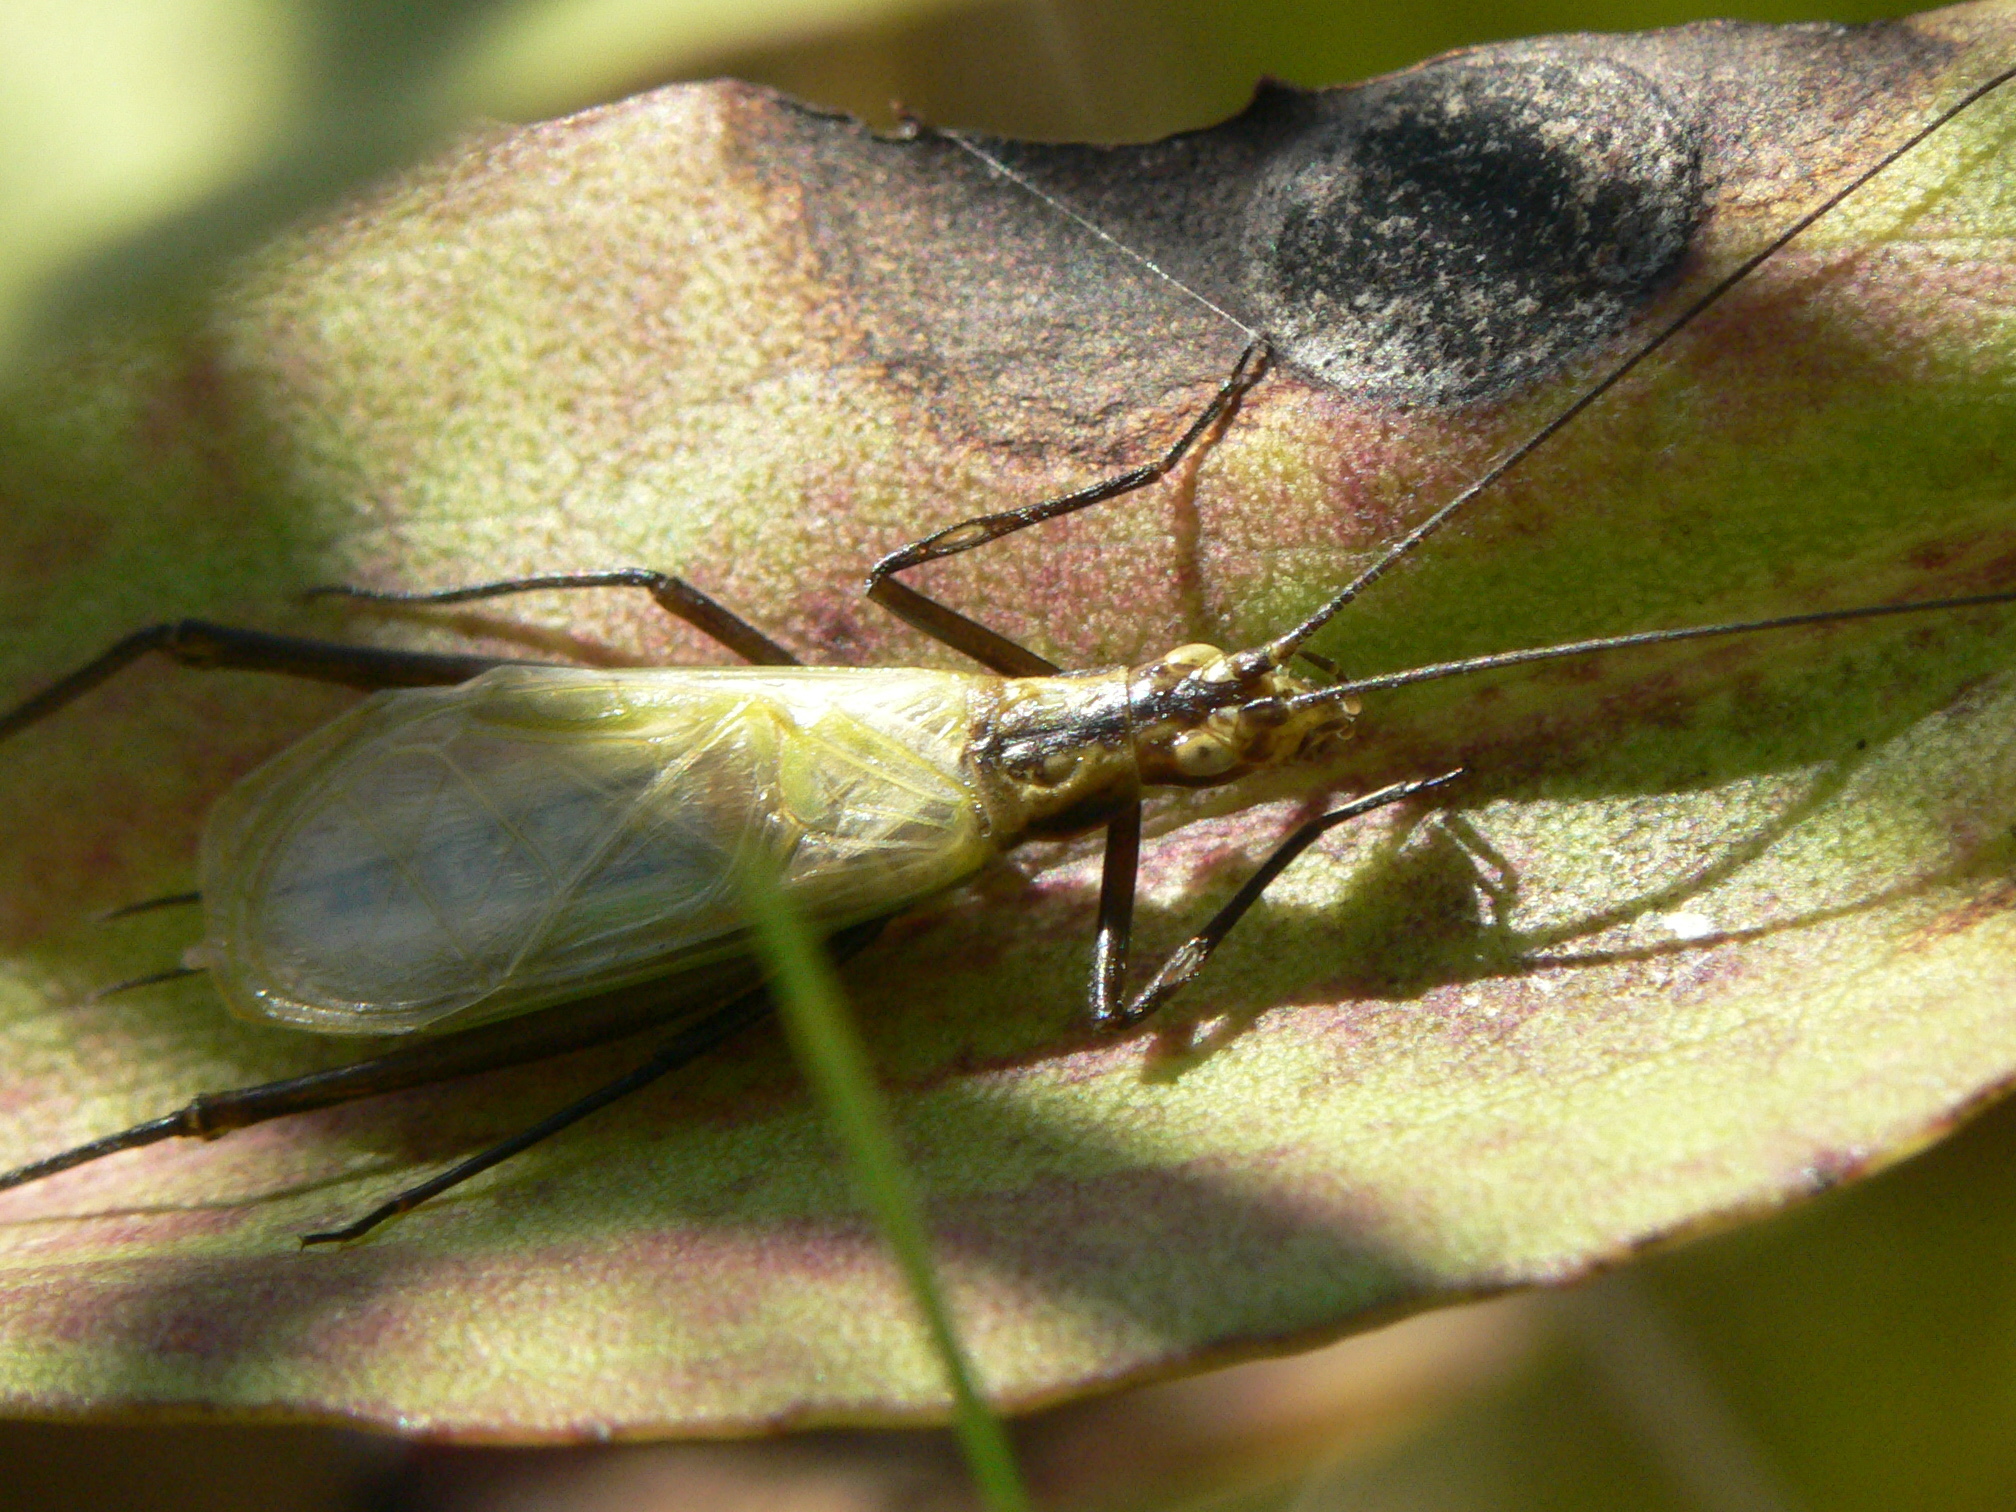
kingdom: Animalia
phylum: Arthropoda
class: Insecta
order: Orthoptera
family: Gryllidae
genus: Oecanthus
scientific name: Oecanthus nigricornis
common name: Black-horned tree cricket
